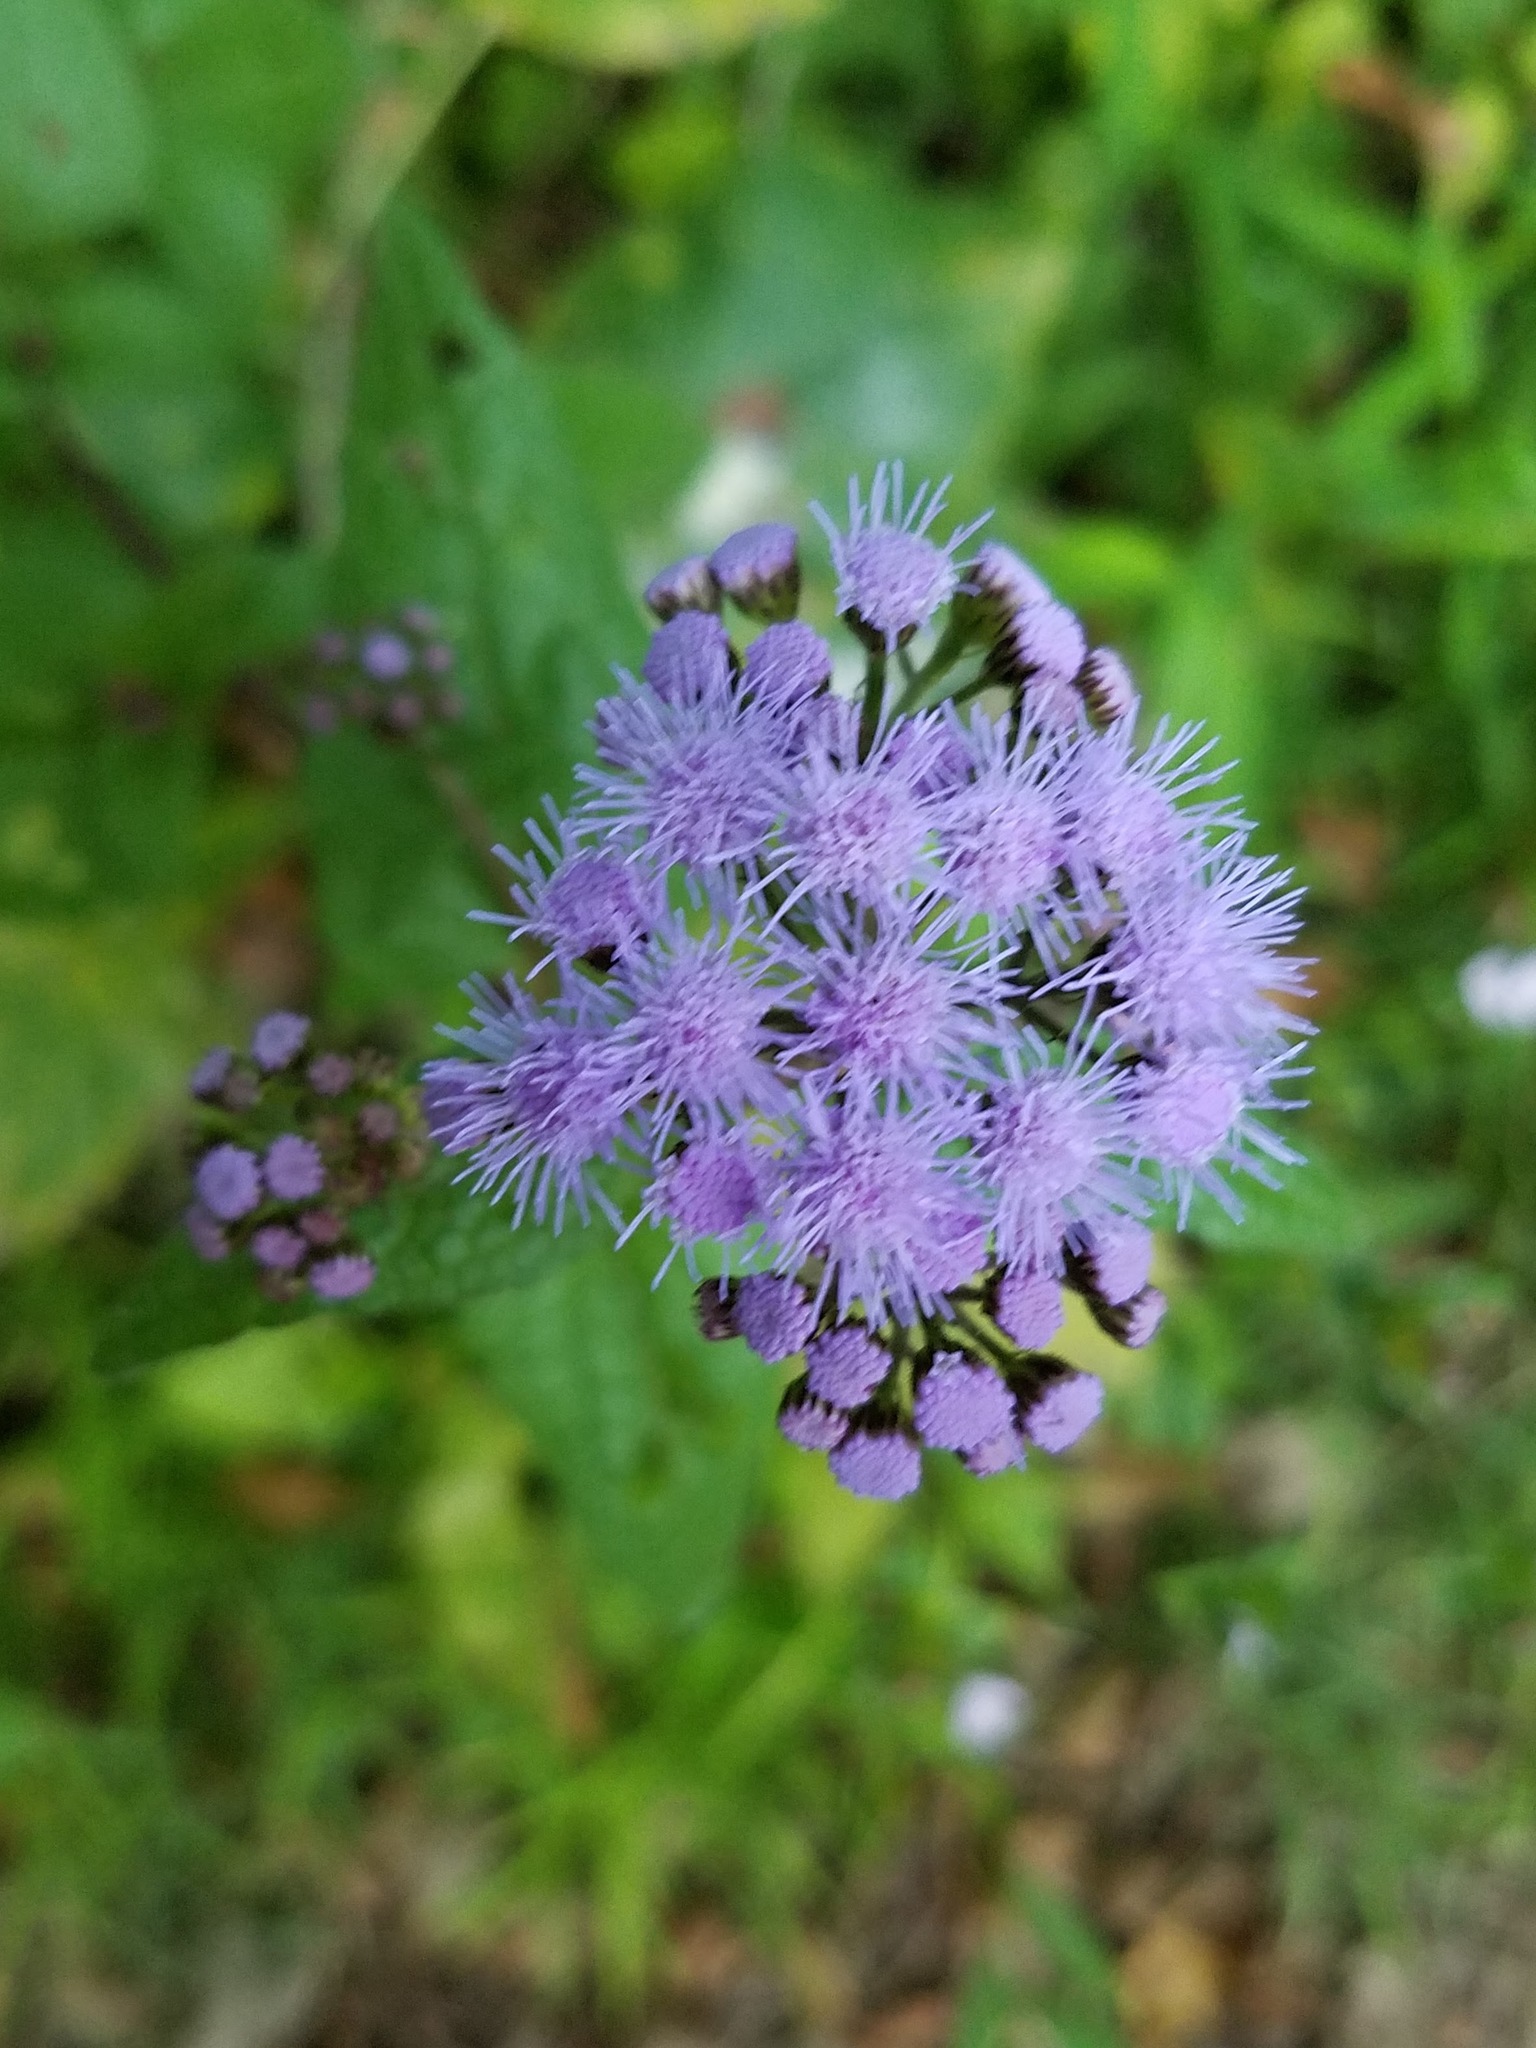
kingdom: Plantae
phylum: Tracheophyta
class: Magnoliopsida
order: Asterales
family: Asteraceae
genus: Conoclinium
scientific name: Conoclinium coelestinum
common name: Blue mistflower
